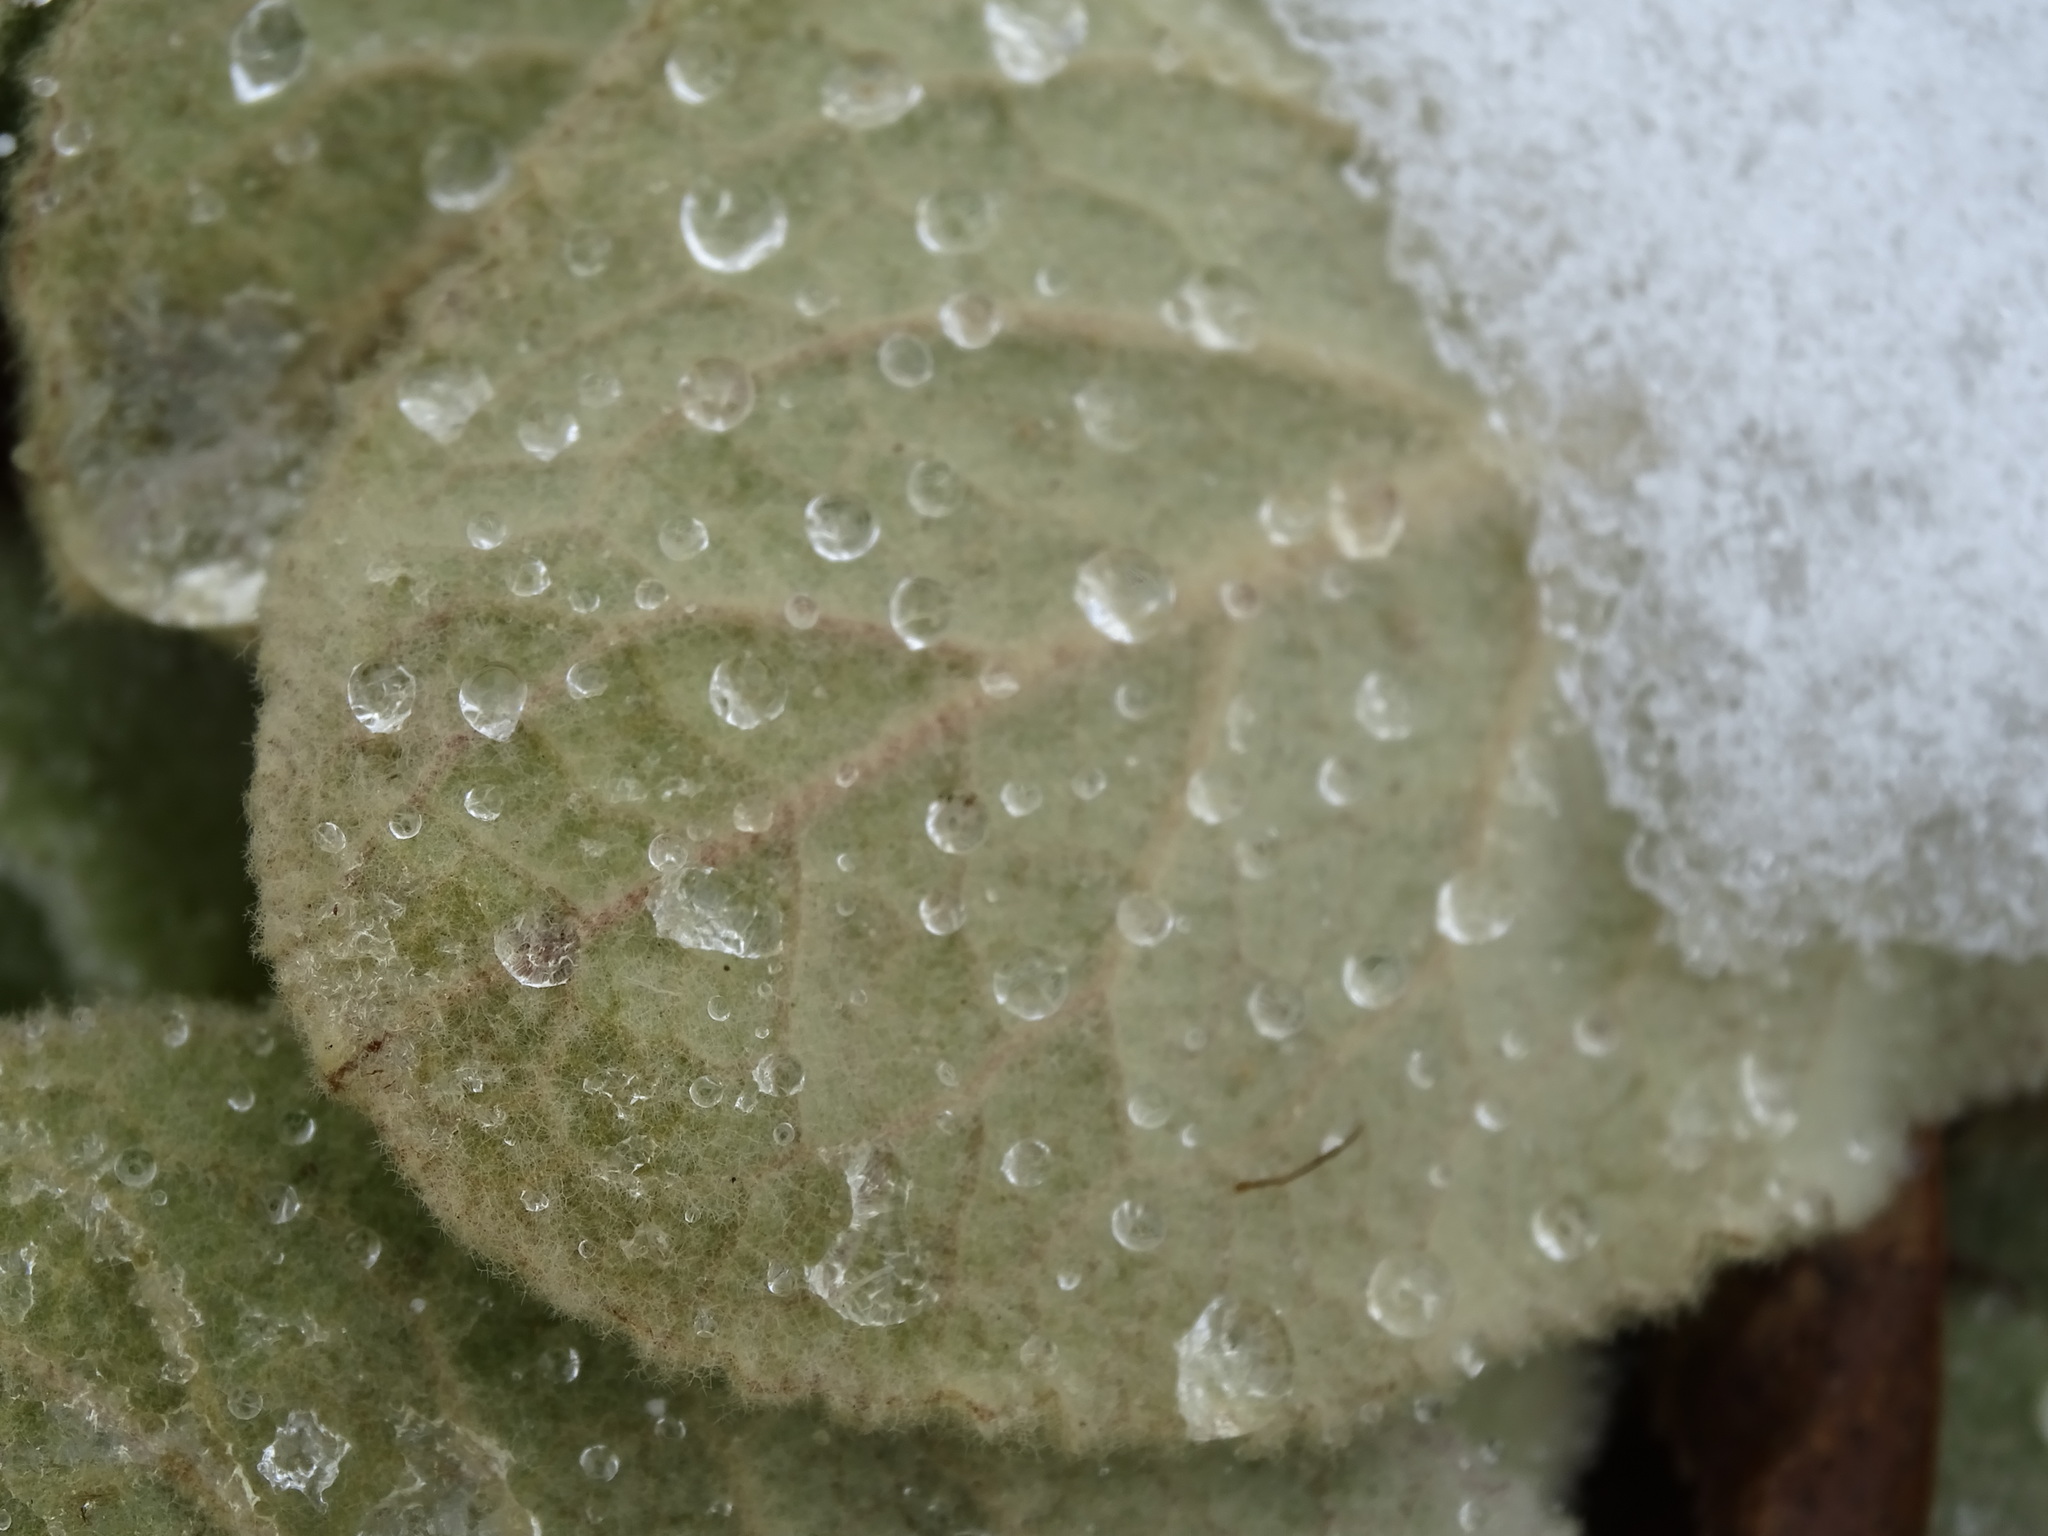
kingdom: Plantae
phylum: Tracheophyta
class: Magnoliopsida
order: Lamiales
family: Scrophulariaceae
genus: Verbascum
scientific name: Verbascum thapsus
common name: Common mullein
